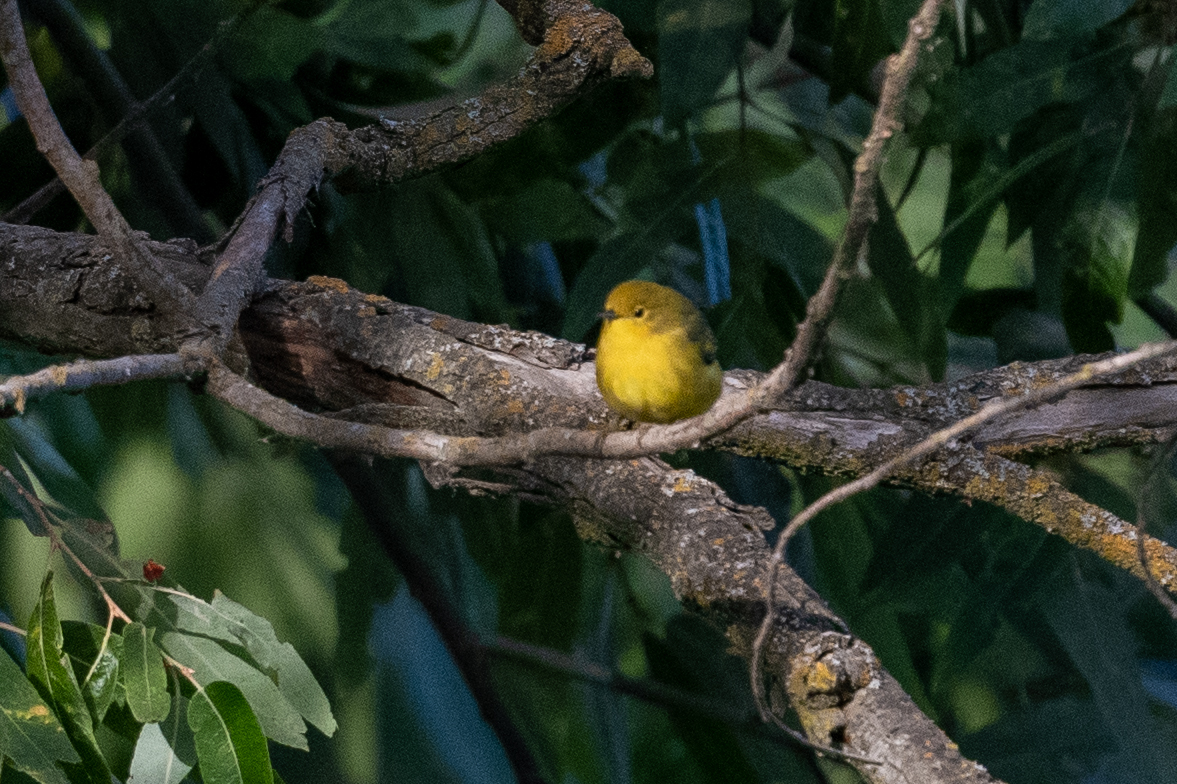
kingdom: Animalia
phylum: Chordata
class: Aves
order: Passeriformes
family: Parulidae
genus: Setophaga
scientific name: Setophaga petechia
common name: Yellow warbler
